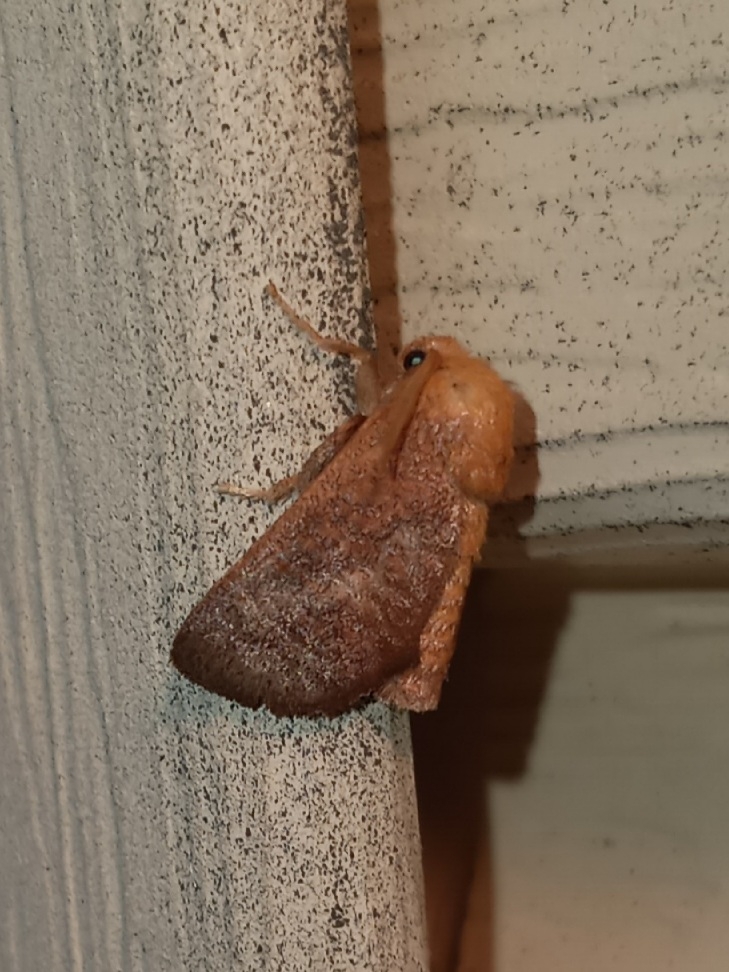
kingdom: Animalia
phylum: Arthropoda
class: Insecta
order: Lepidoptera
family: Limacodidae
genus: Isa
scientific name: Isa textula
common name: Crowned slug moth
